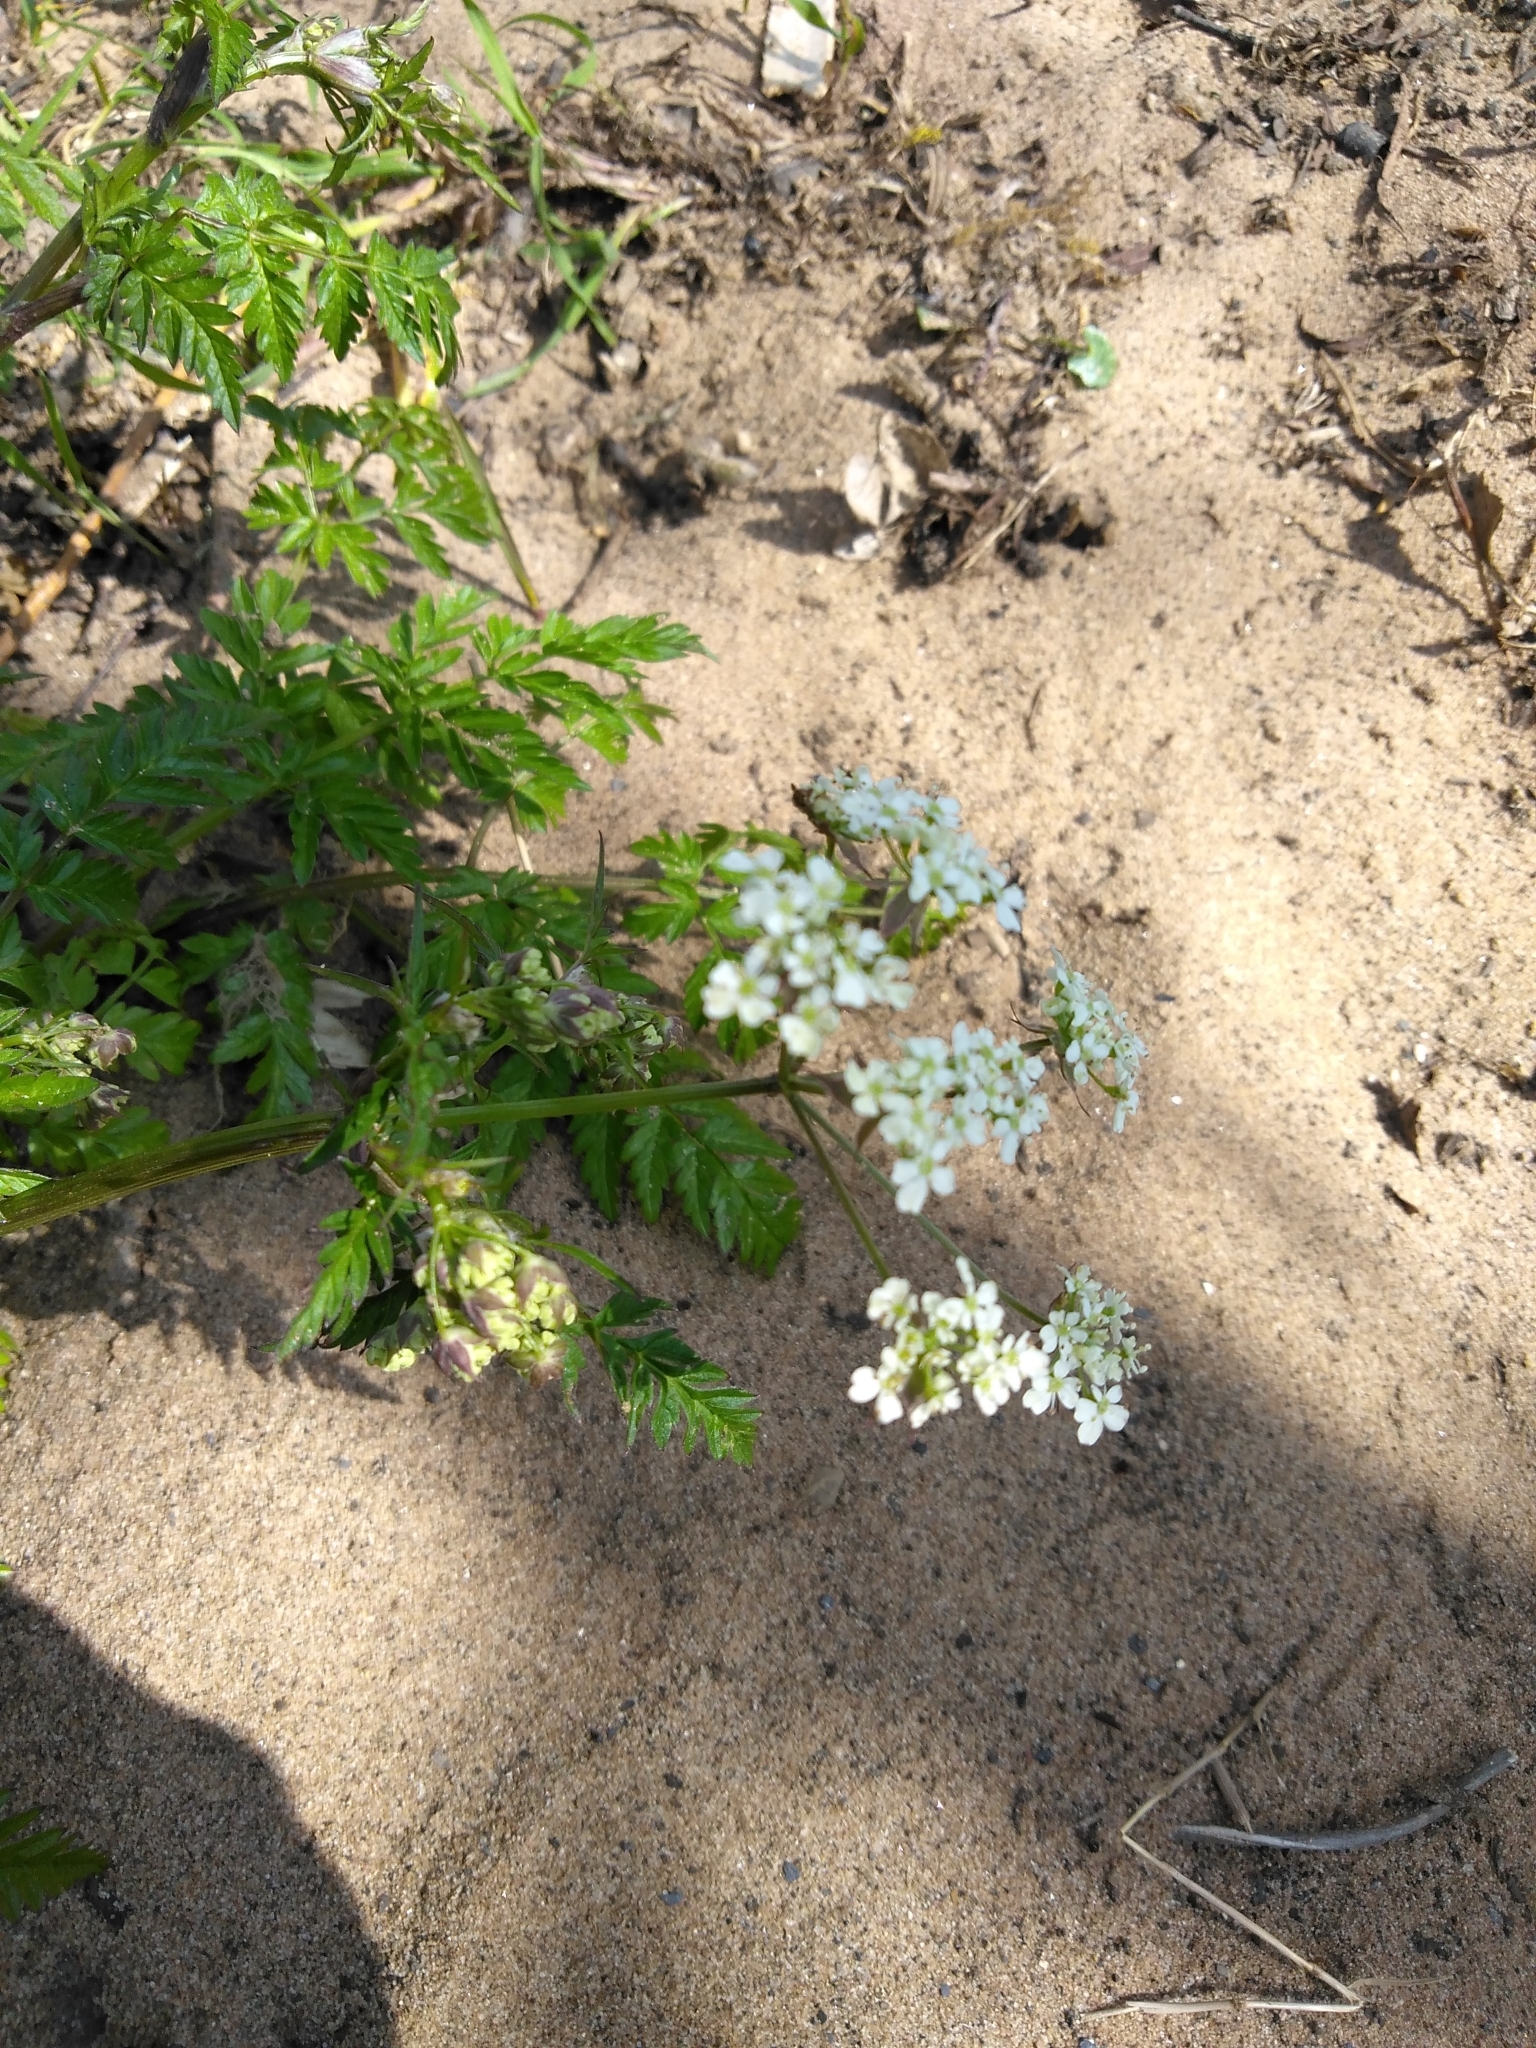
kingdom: Plantae
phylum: Tracheophyta
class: Magnoliopsida
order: Apiales
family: Apiaceae
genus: Anthriscus
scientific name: Anthriscus sylvestris
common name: Cow parsley
